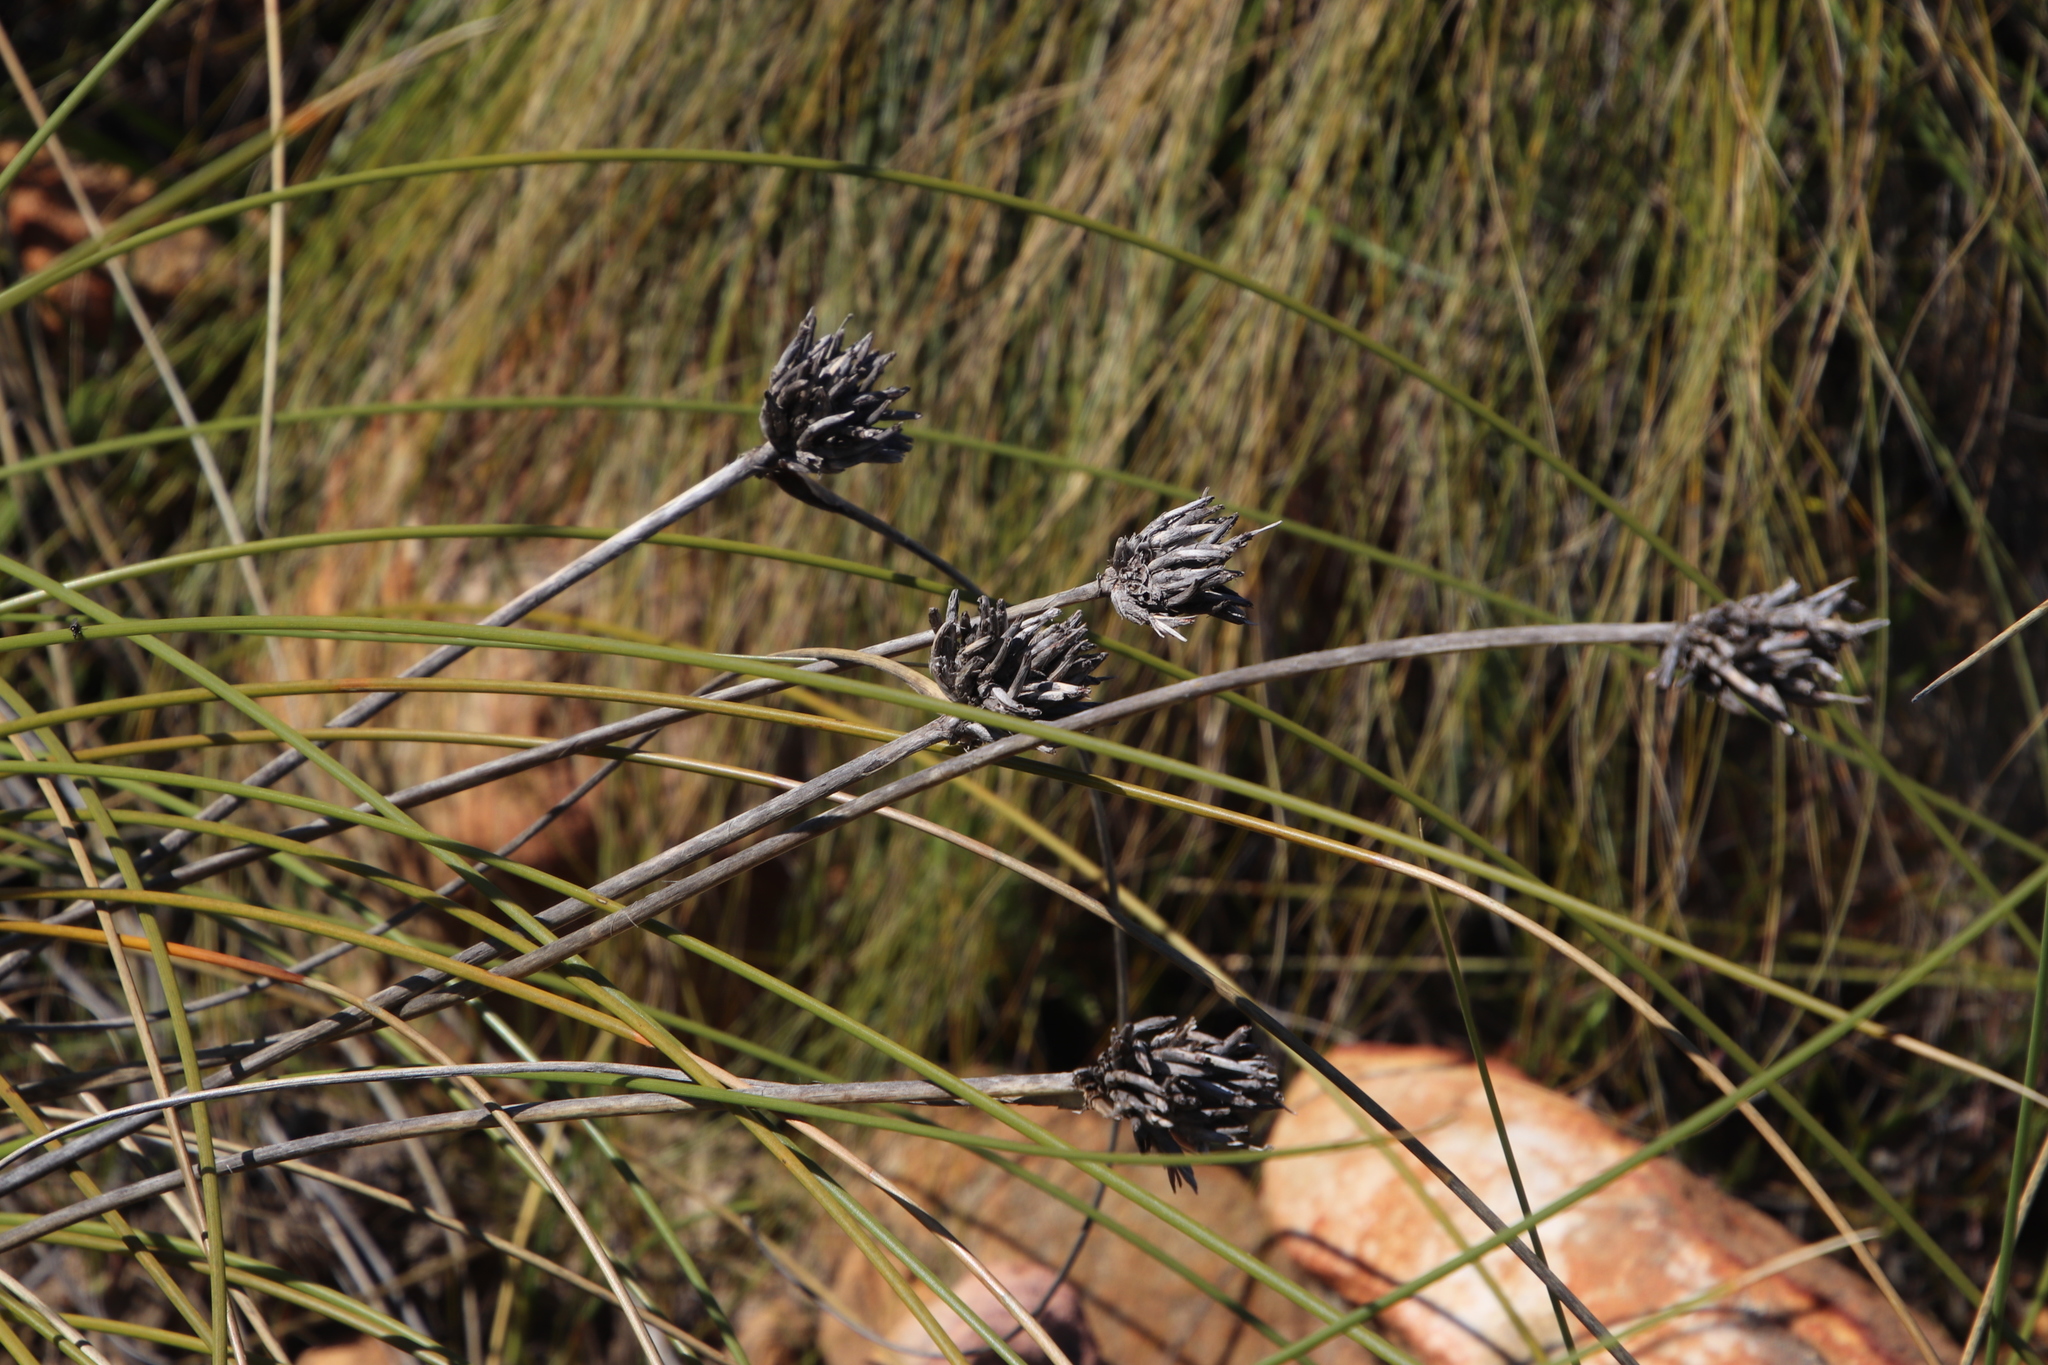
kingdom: Plantae
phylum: Tracheophyta
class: Liliopsida
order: Asparagales
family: Iridaceae
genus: Bobartia
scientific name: Bobartia indica
